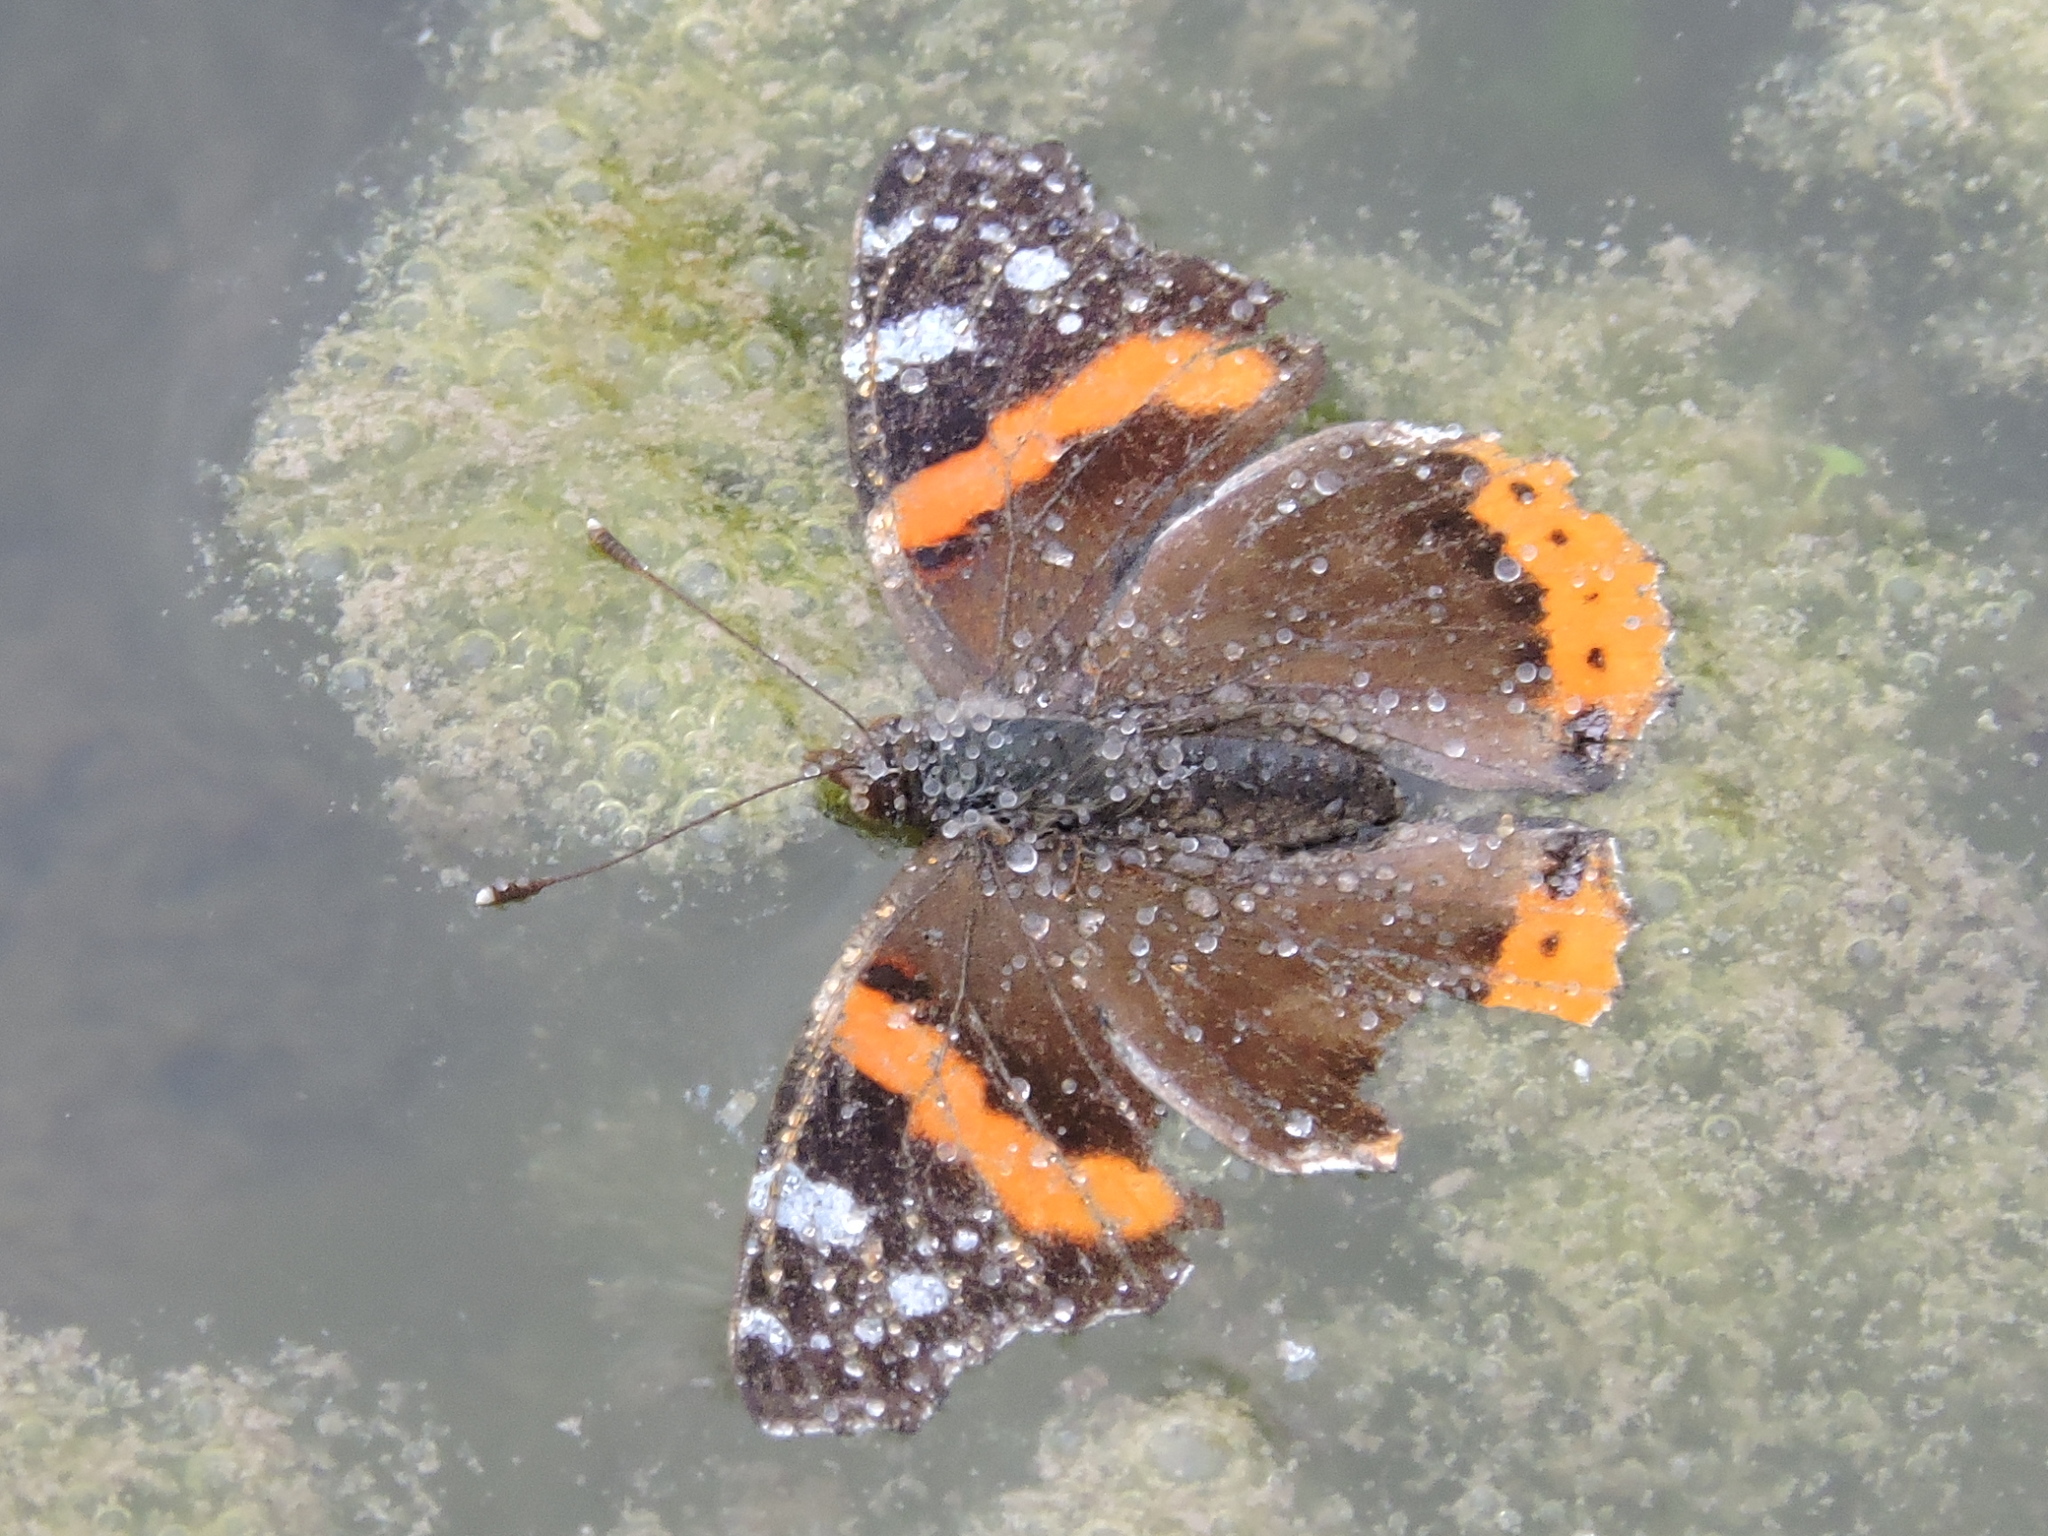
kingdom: Animalia
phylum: Arthropoda
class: Insecta
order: Lepidoptera
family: Nymphalidae
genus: Vanessa
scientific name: Vanessa atalanta
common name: Red admiral
